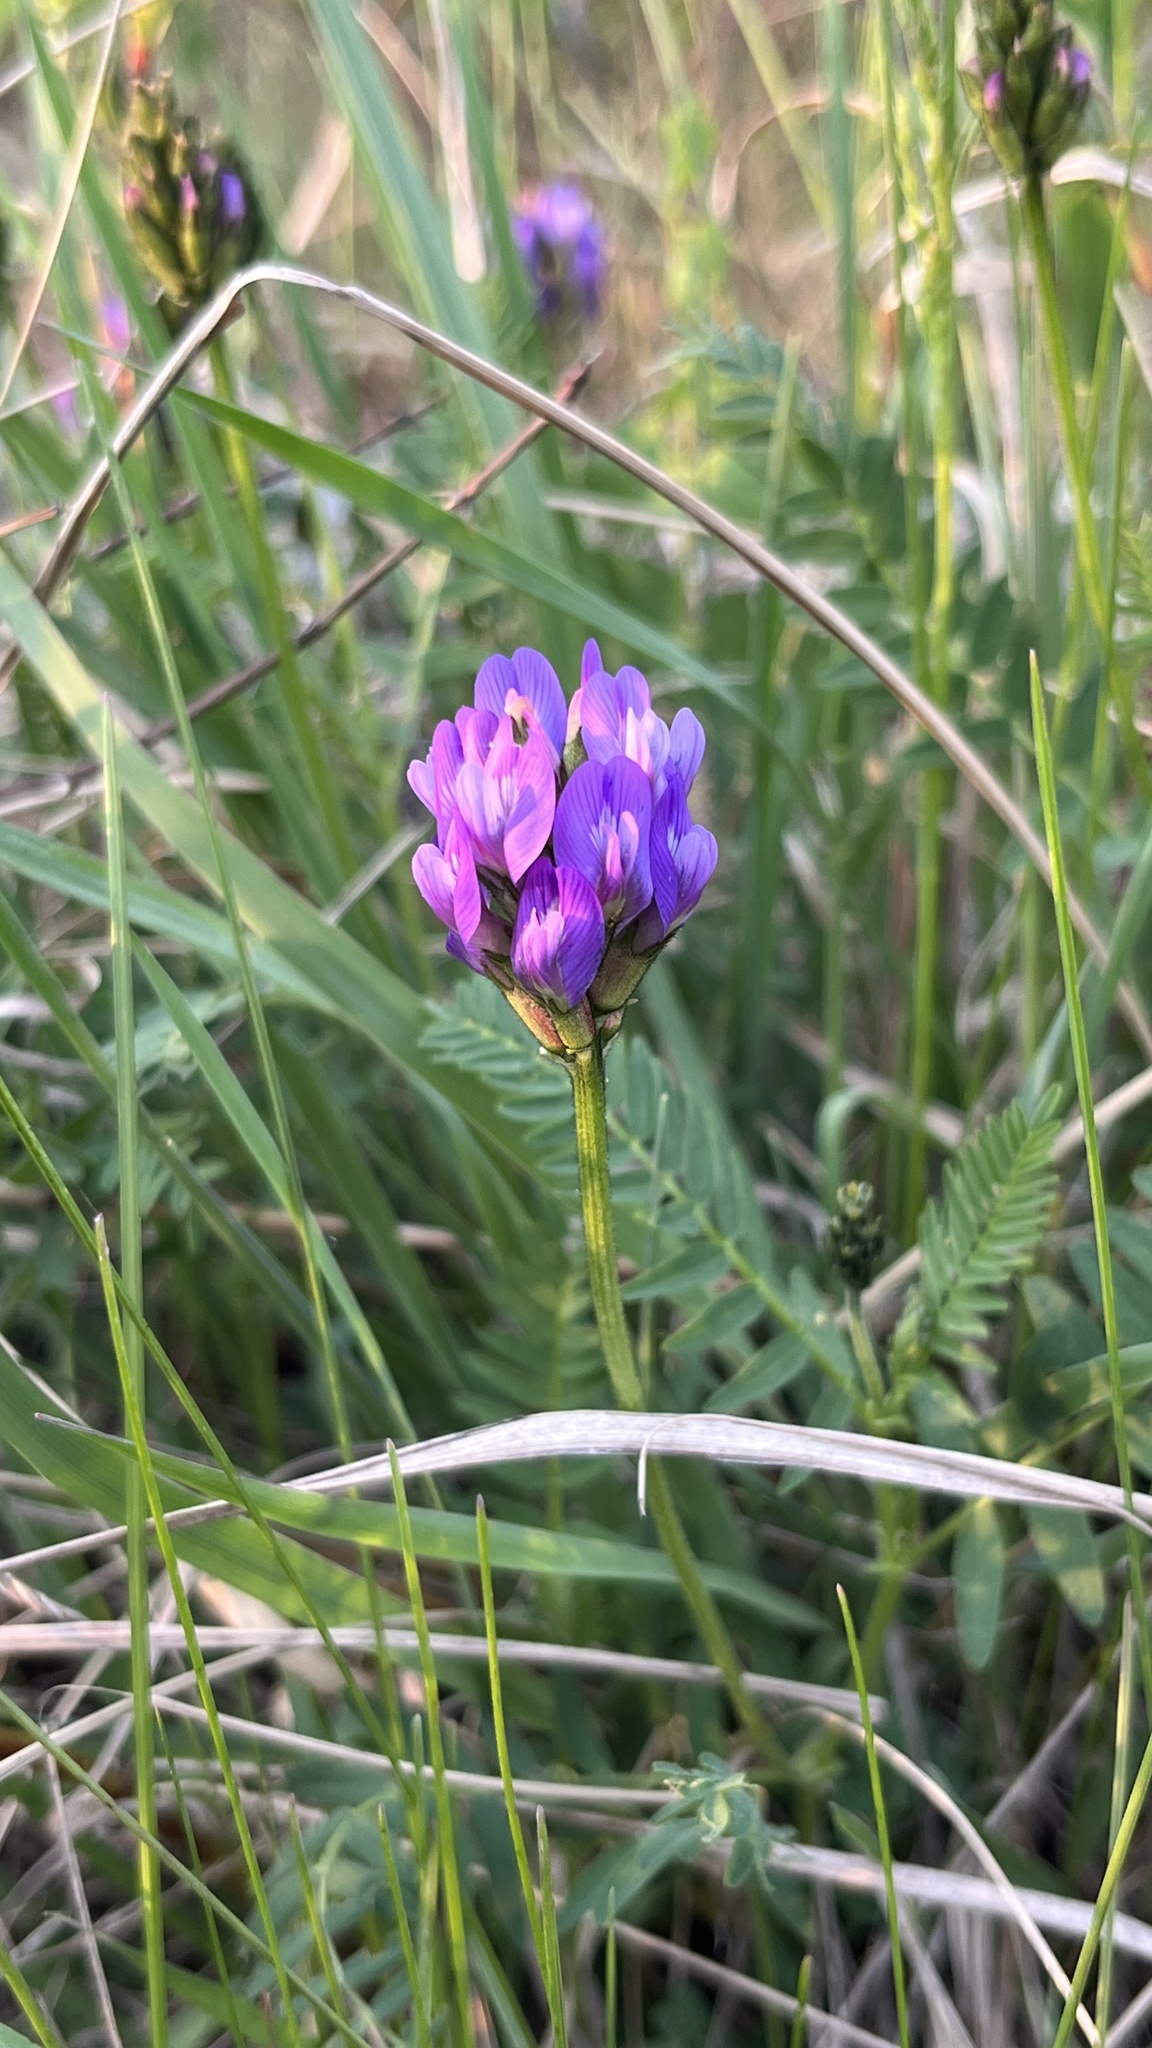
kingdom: Plantae
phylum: Tracheophyta
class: Magnoliopsida
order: Fabales
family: Fabaceae
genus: Astragalus
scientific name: Astragalus danicus
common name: Purple milk-vetch
